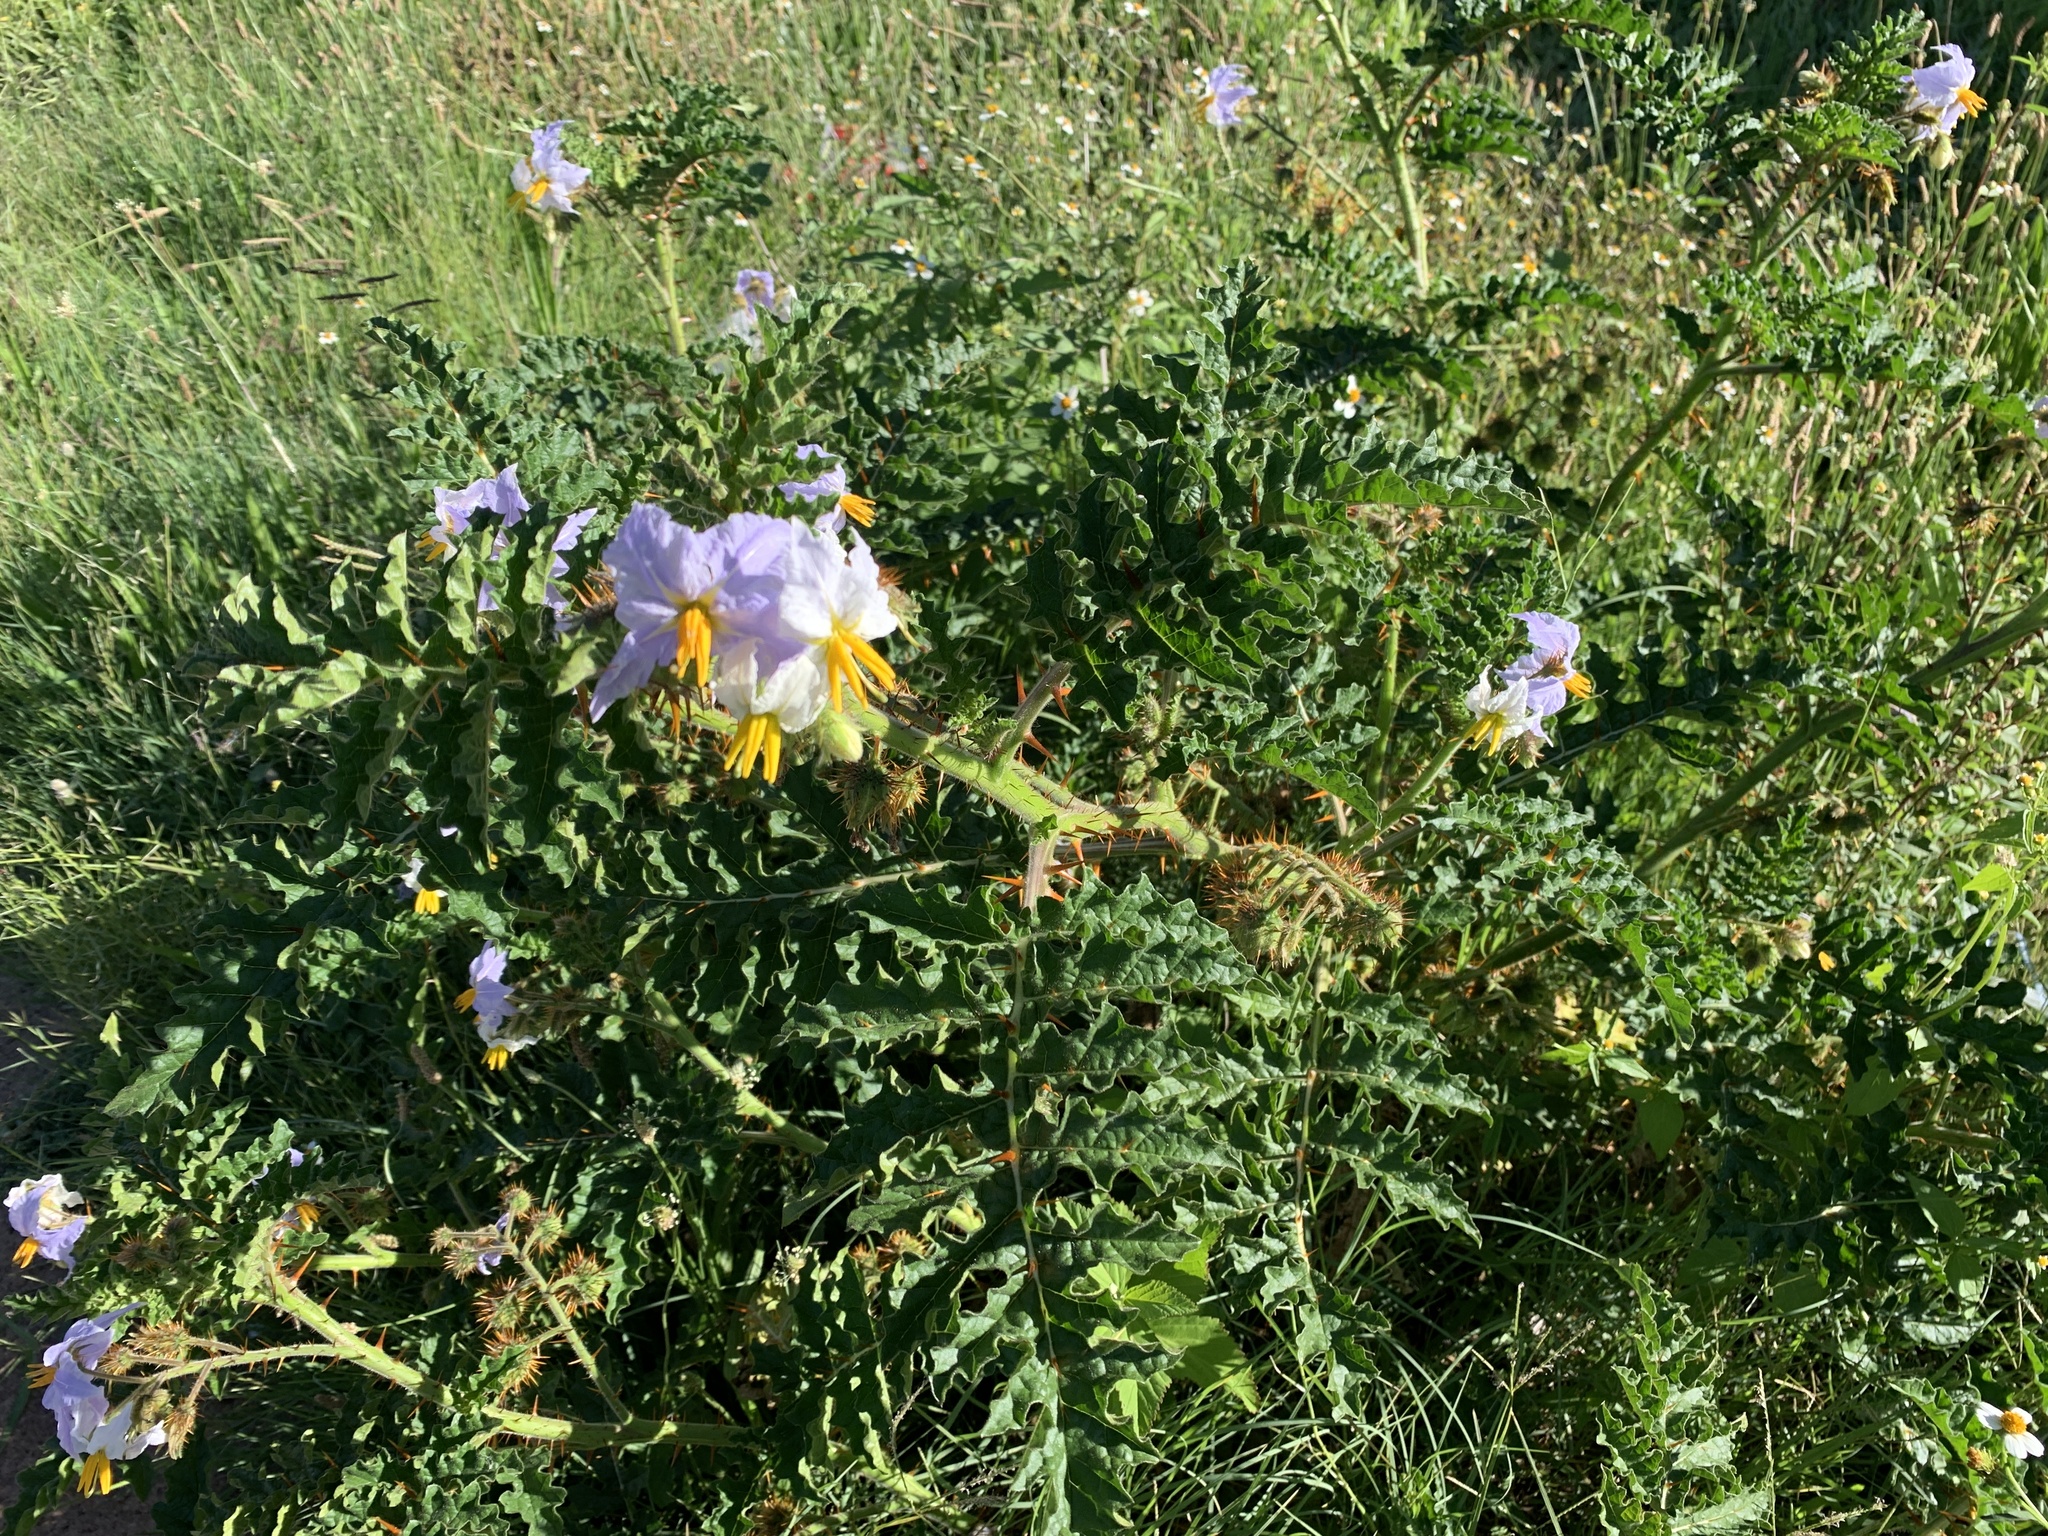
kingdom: Plantae
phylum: Tracheophyta
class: Magnoliopsida
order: Solanales
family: Solanaceae
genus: Solanum
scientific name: Solanum sisymbriifolium
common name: Red buffalo-bur
